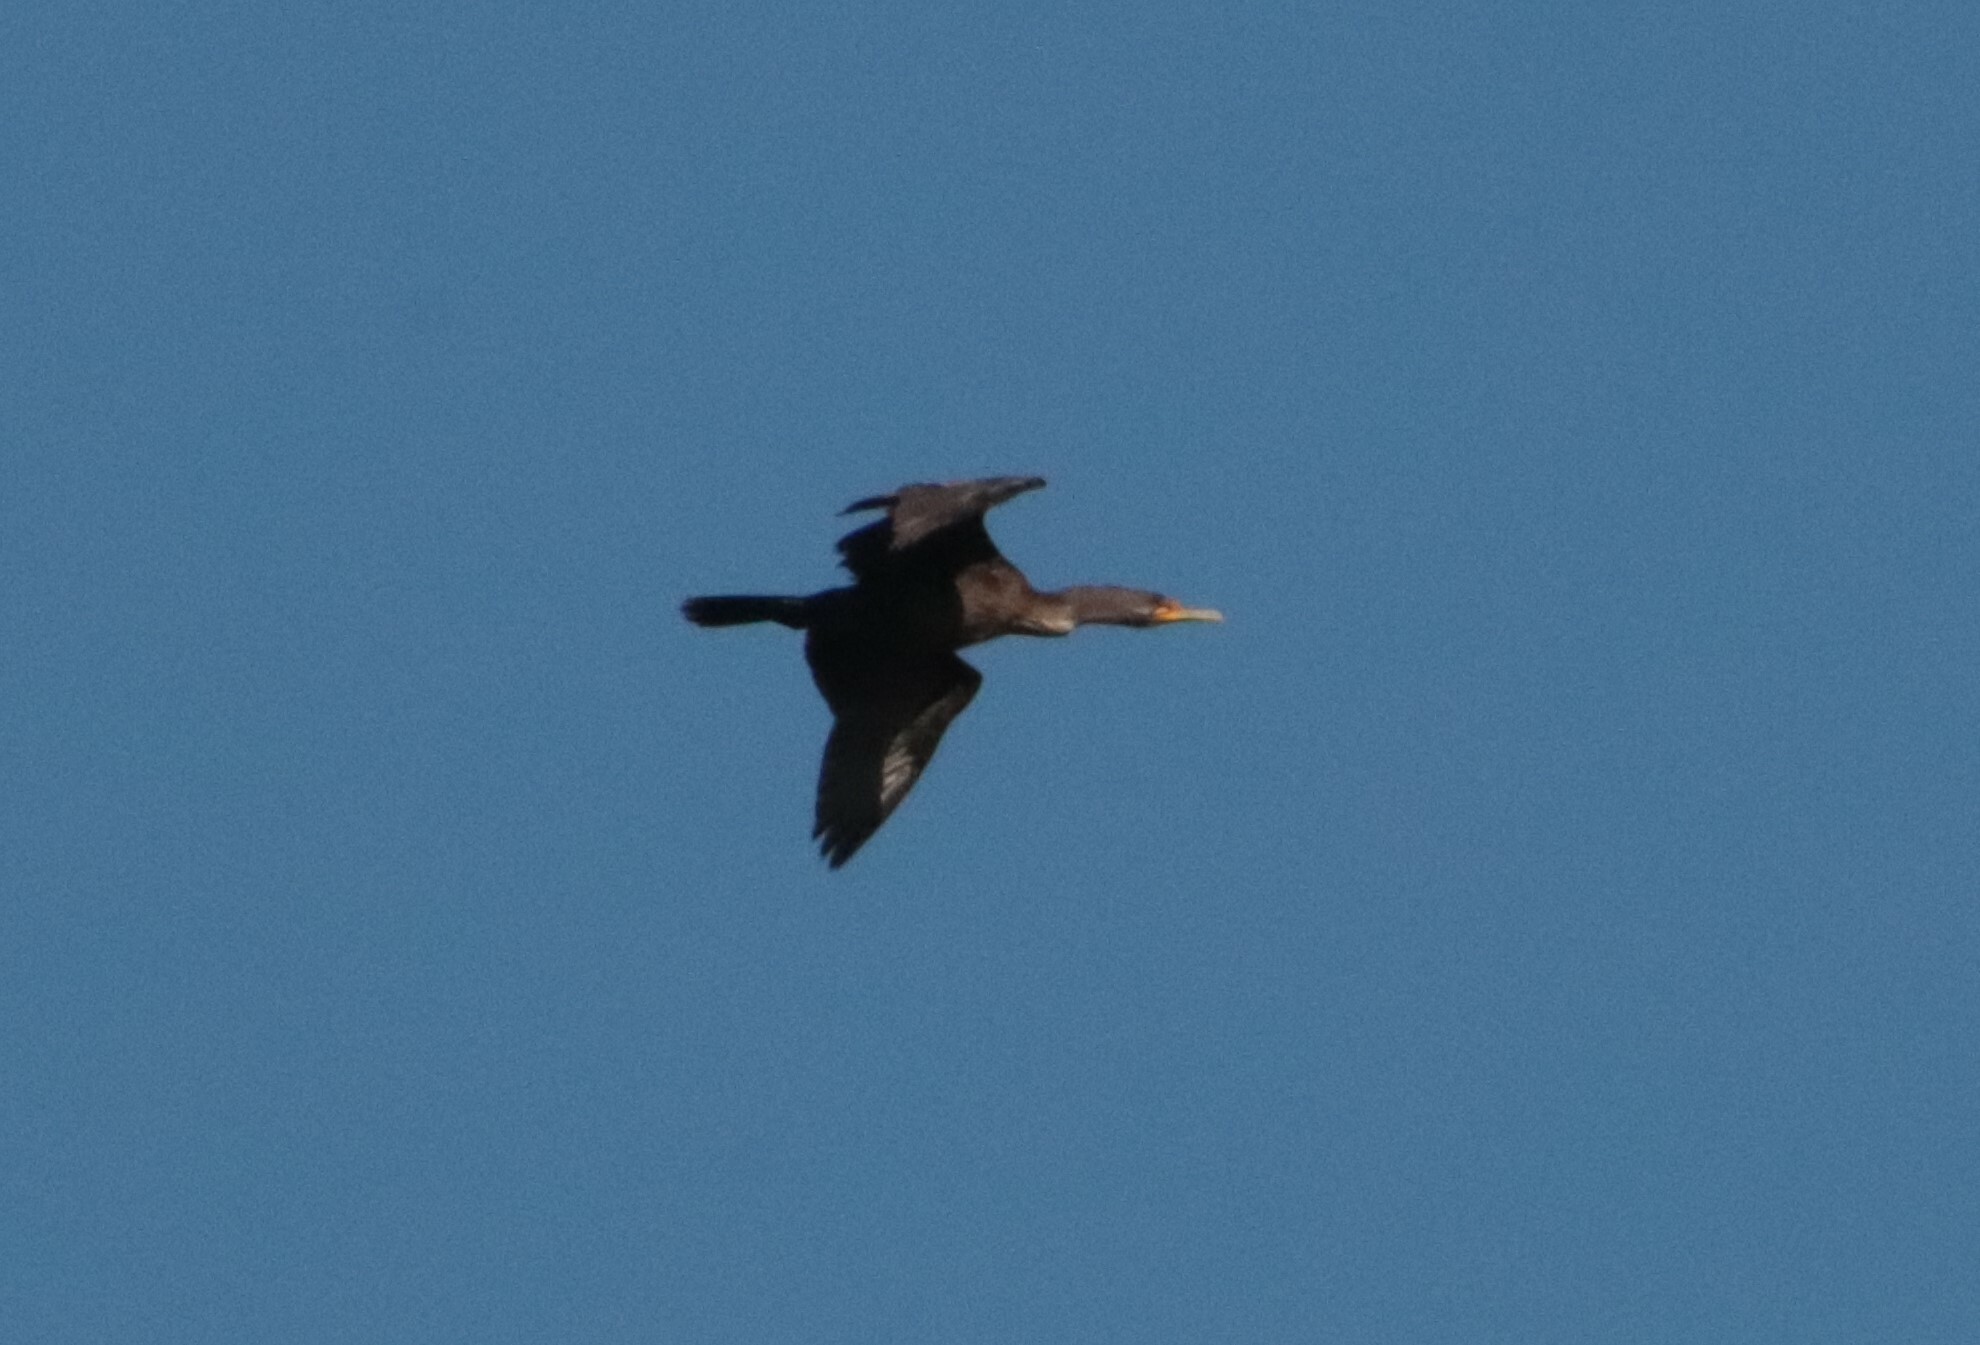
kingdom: Animalia
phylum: Chordata
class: Aves
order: Suliformes
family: Phalacrocoracidae
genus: Phalacrocorax
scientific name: Phalacrocorax auritus
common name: Double-crested cormorant
